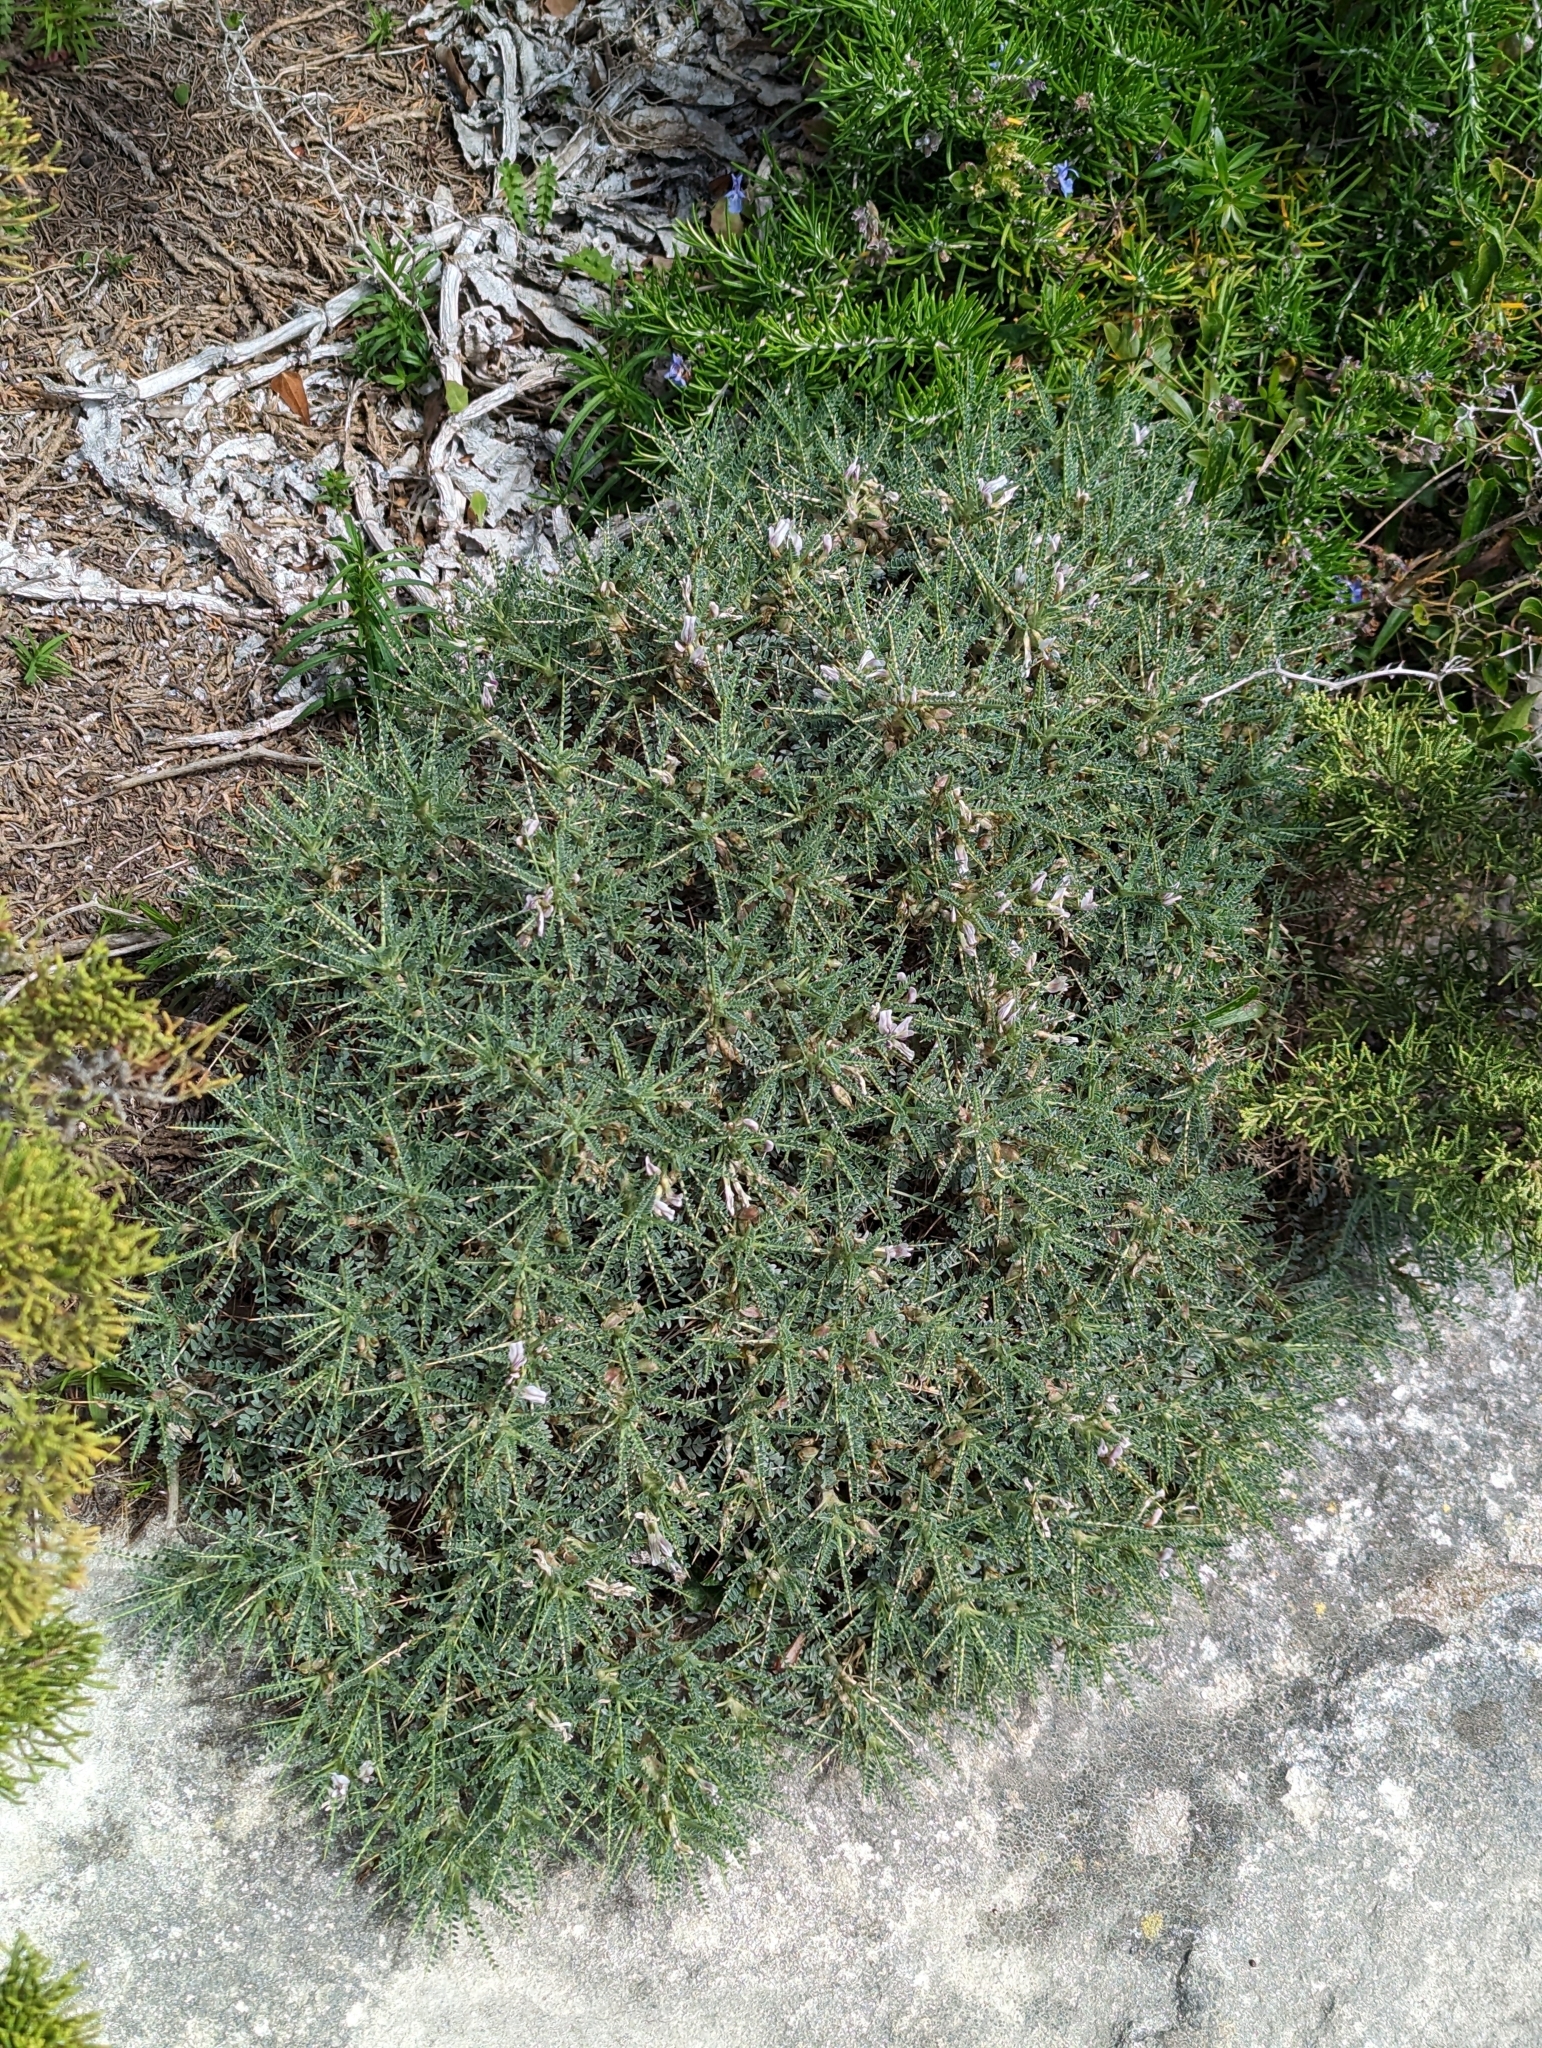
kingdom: Plantae
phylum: Tracheophyta
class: Magnoliopsida
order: Fabales
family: Fabaceae
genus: Astragalus
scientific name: Astragalus terraccianoi
